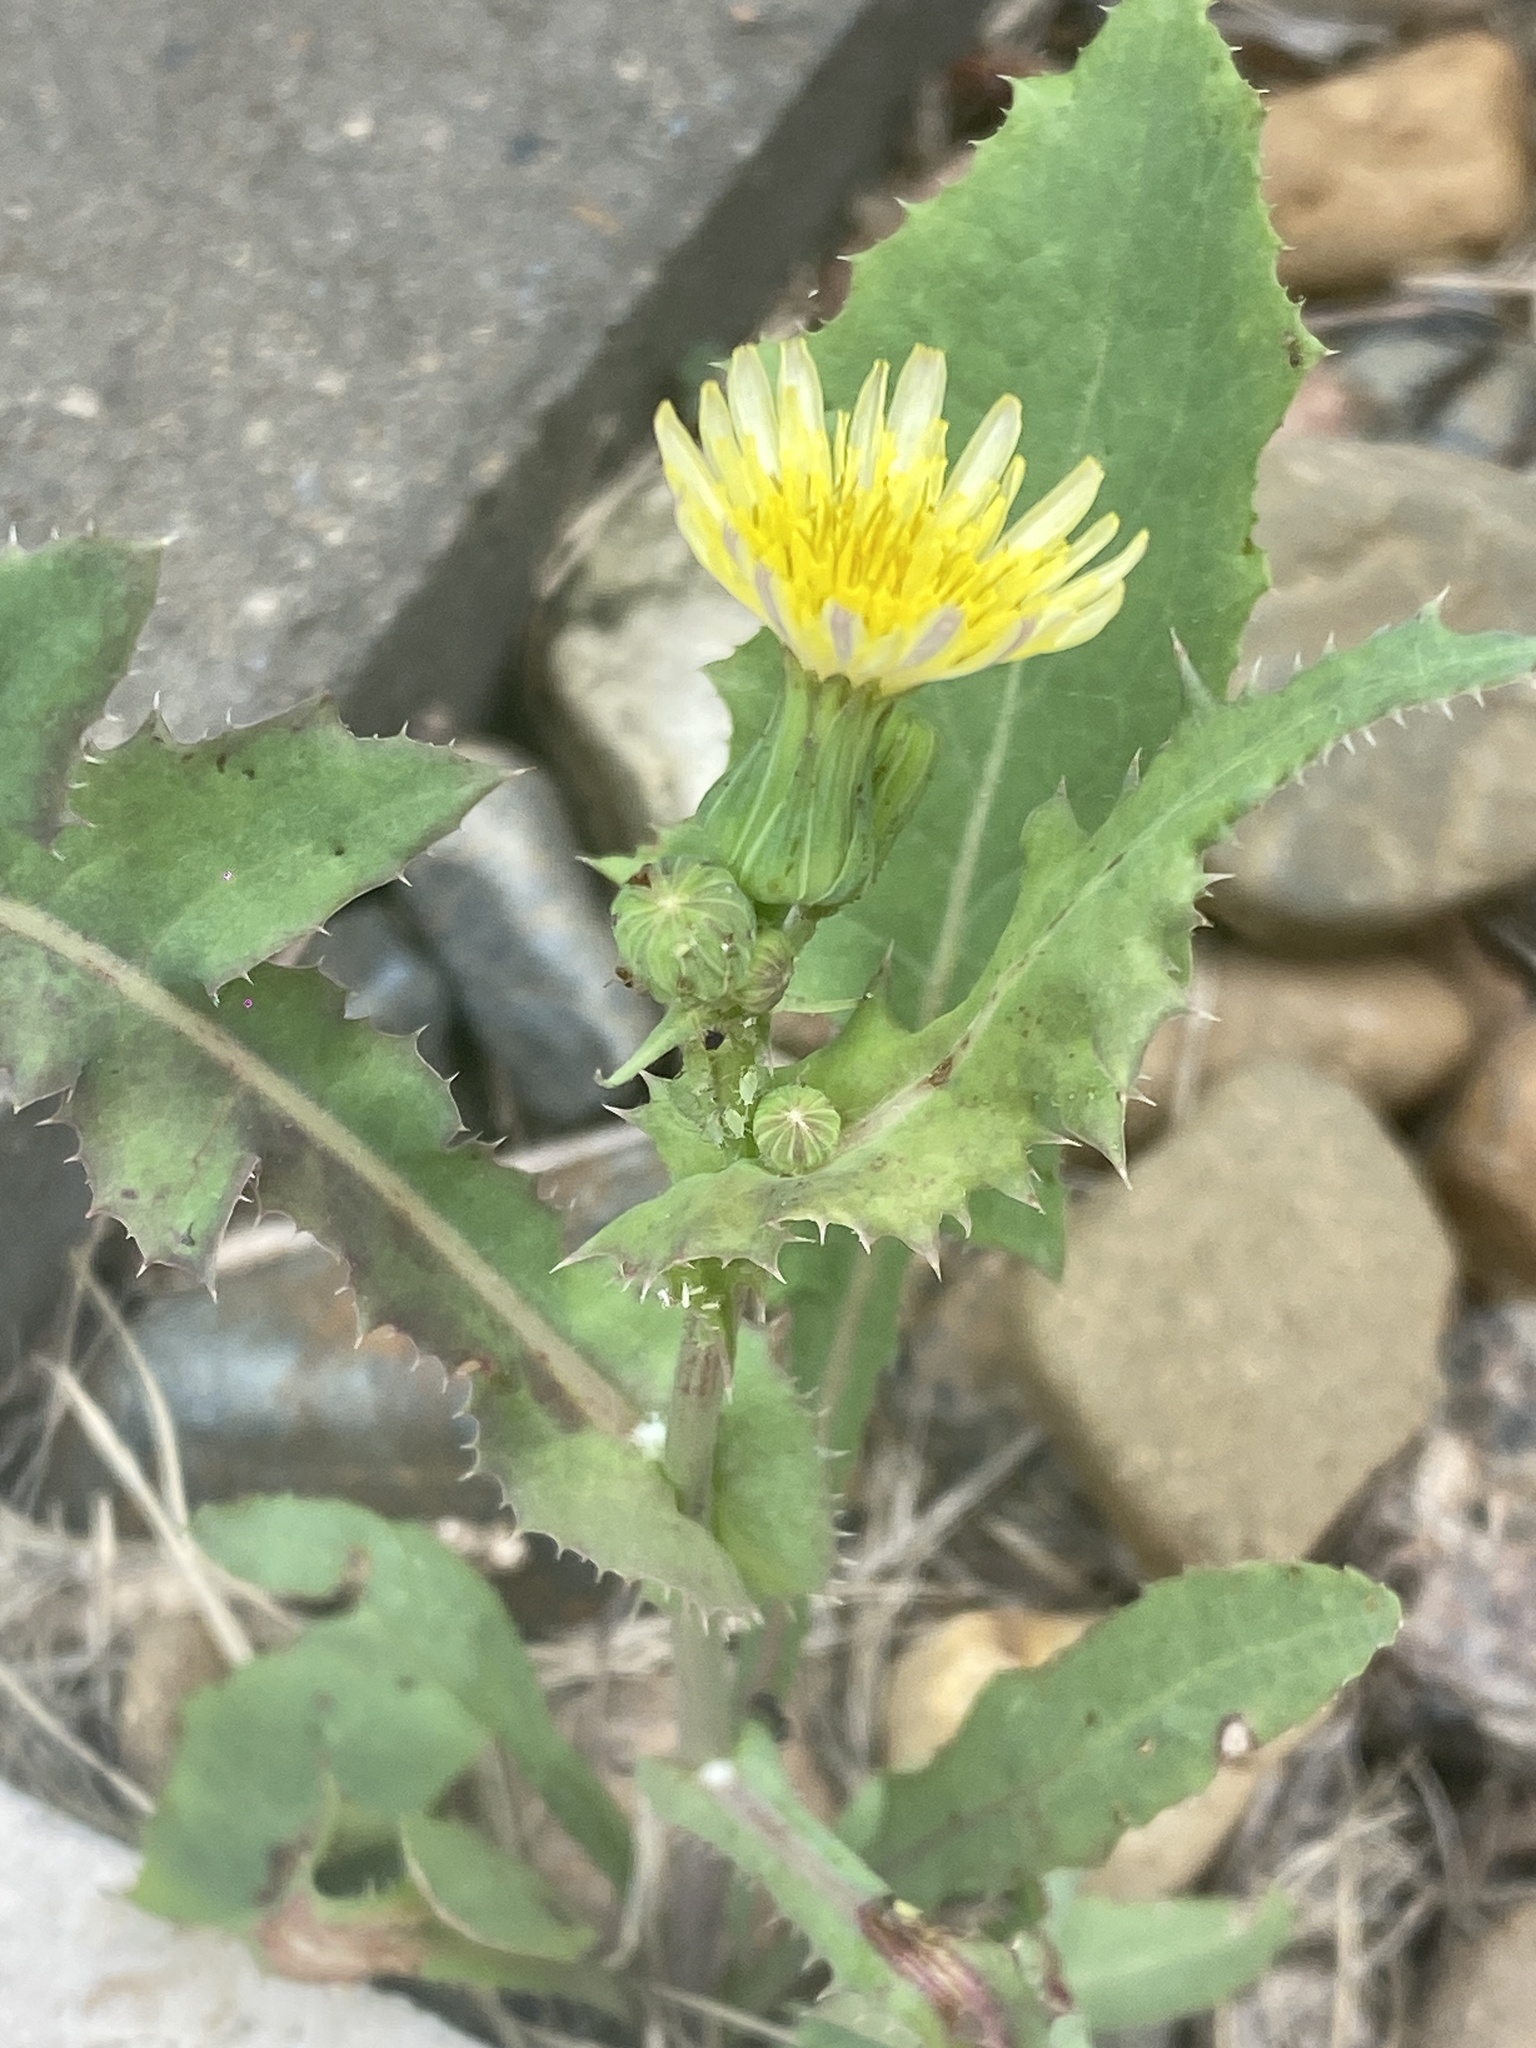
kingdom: Plantae
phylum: Tracheophyta
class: Magnoliopsida
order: Asterales
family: Asteraceae
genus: Sonchus
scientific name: Sonchus oleraceus
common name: Common sowthistle
